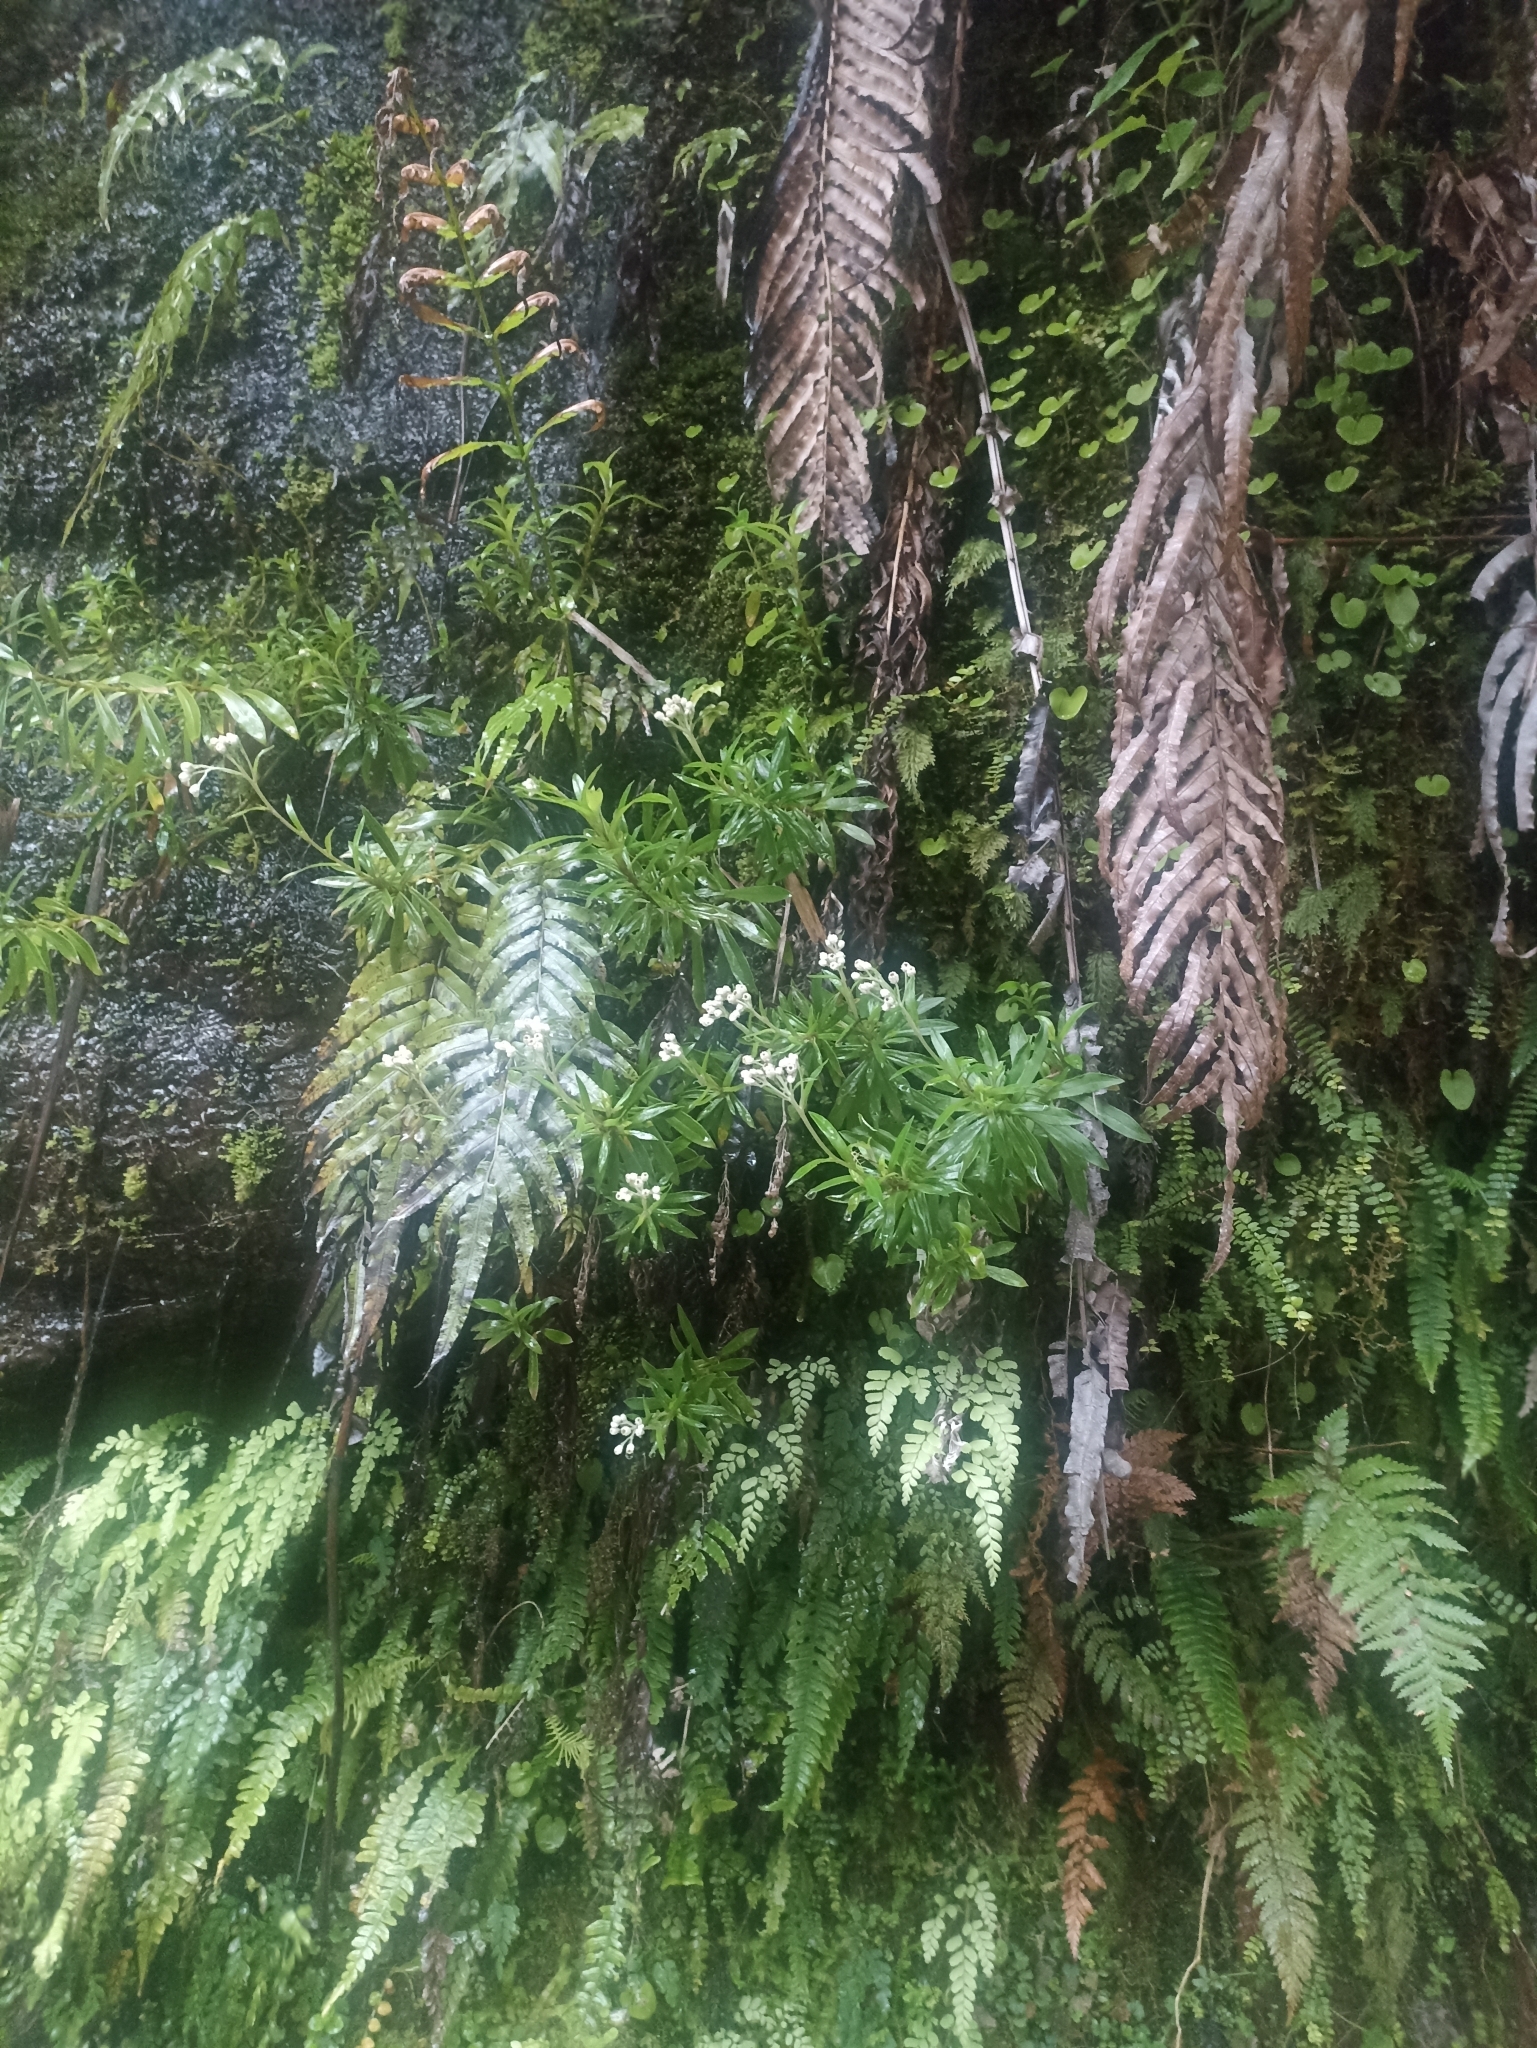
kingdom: Plantae
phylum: Tracheophyta
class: Magnoliopsida
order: Asterales
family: Asteraceae
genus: Anaphalioides
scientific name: Anaphalioides trinervis
